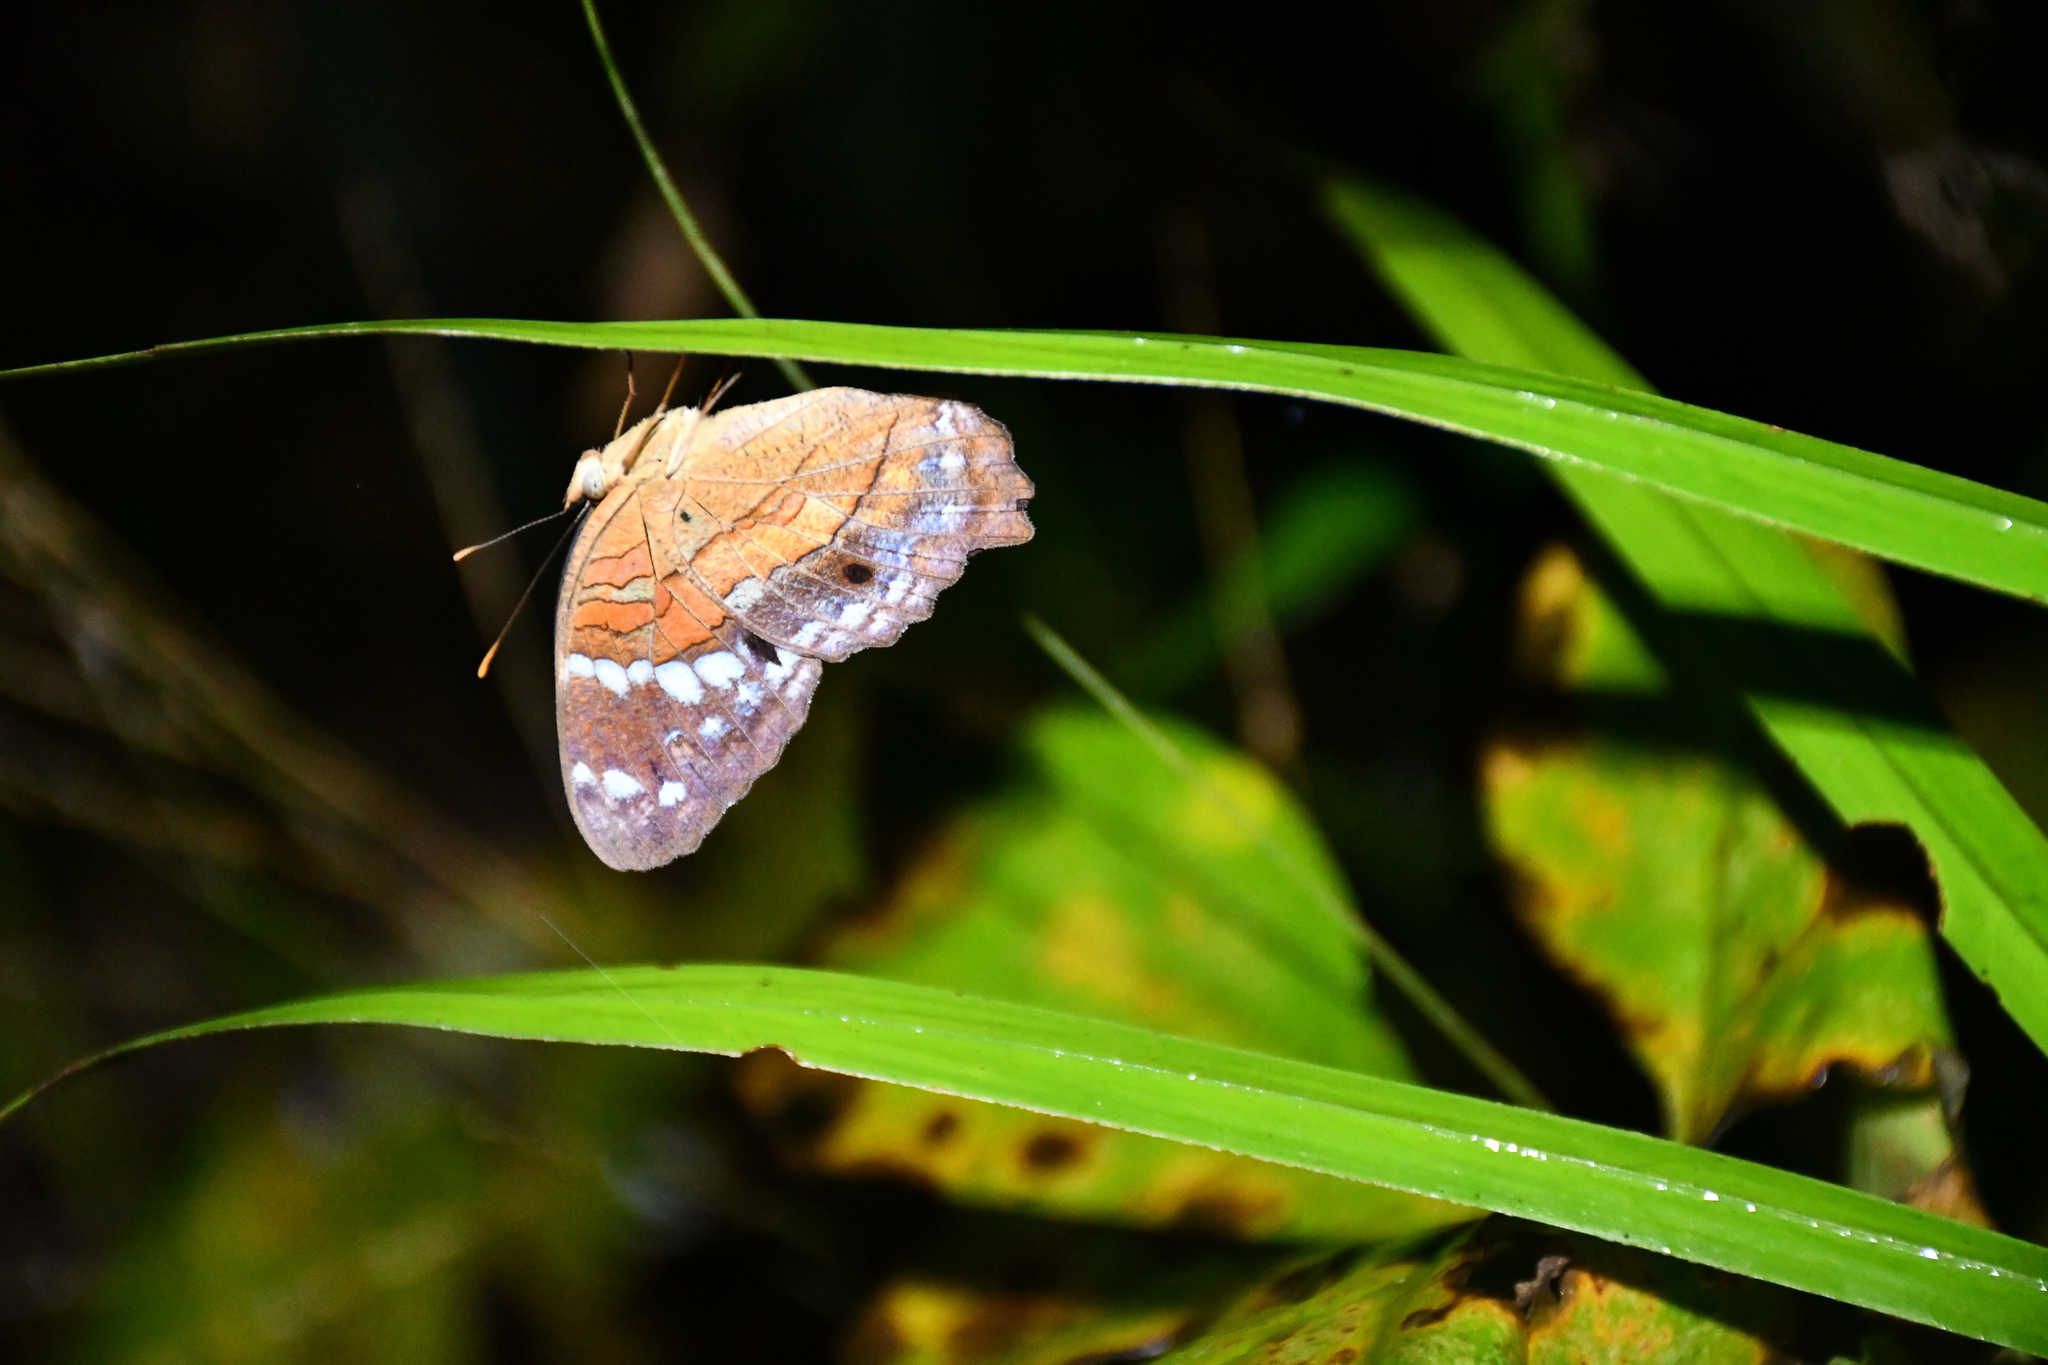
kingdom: Animalia
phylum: Arthropoda
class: Insecta
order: Lepidoptera
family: Nymphalidae
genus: Anartia
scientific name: Anartia amathea
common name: Red peacock
